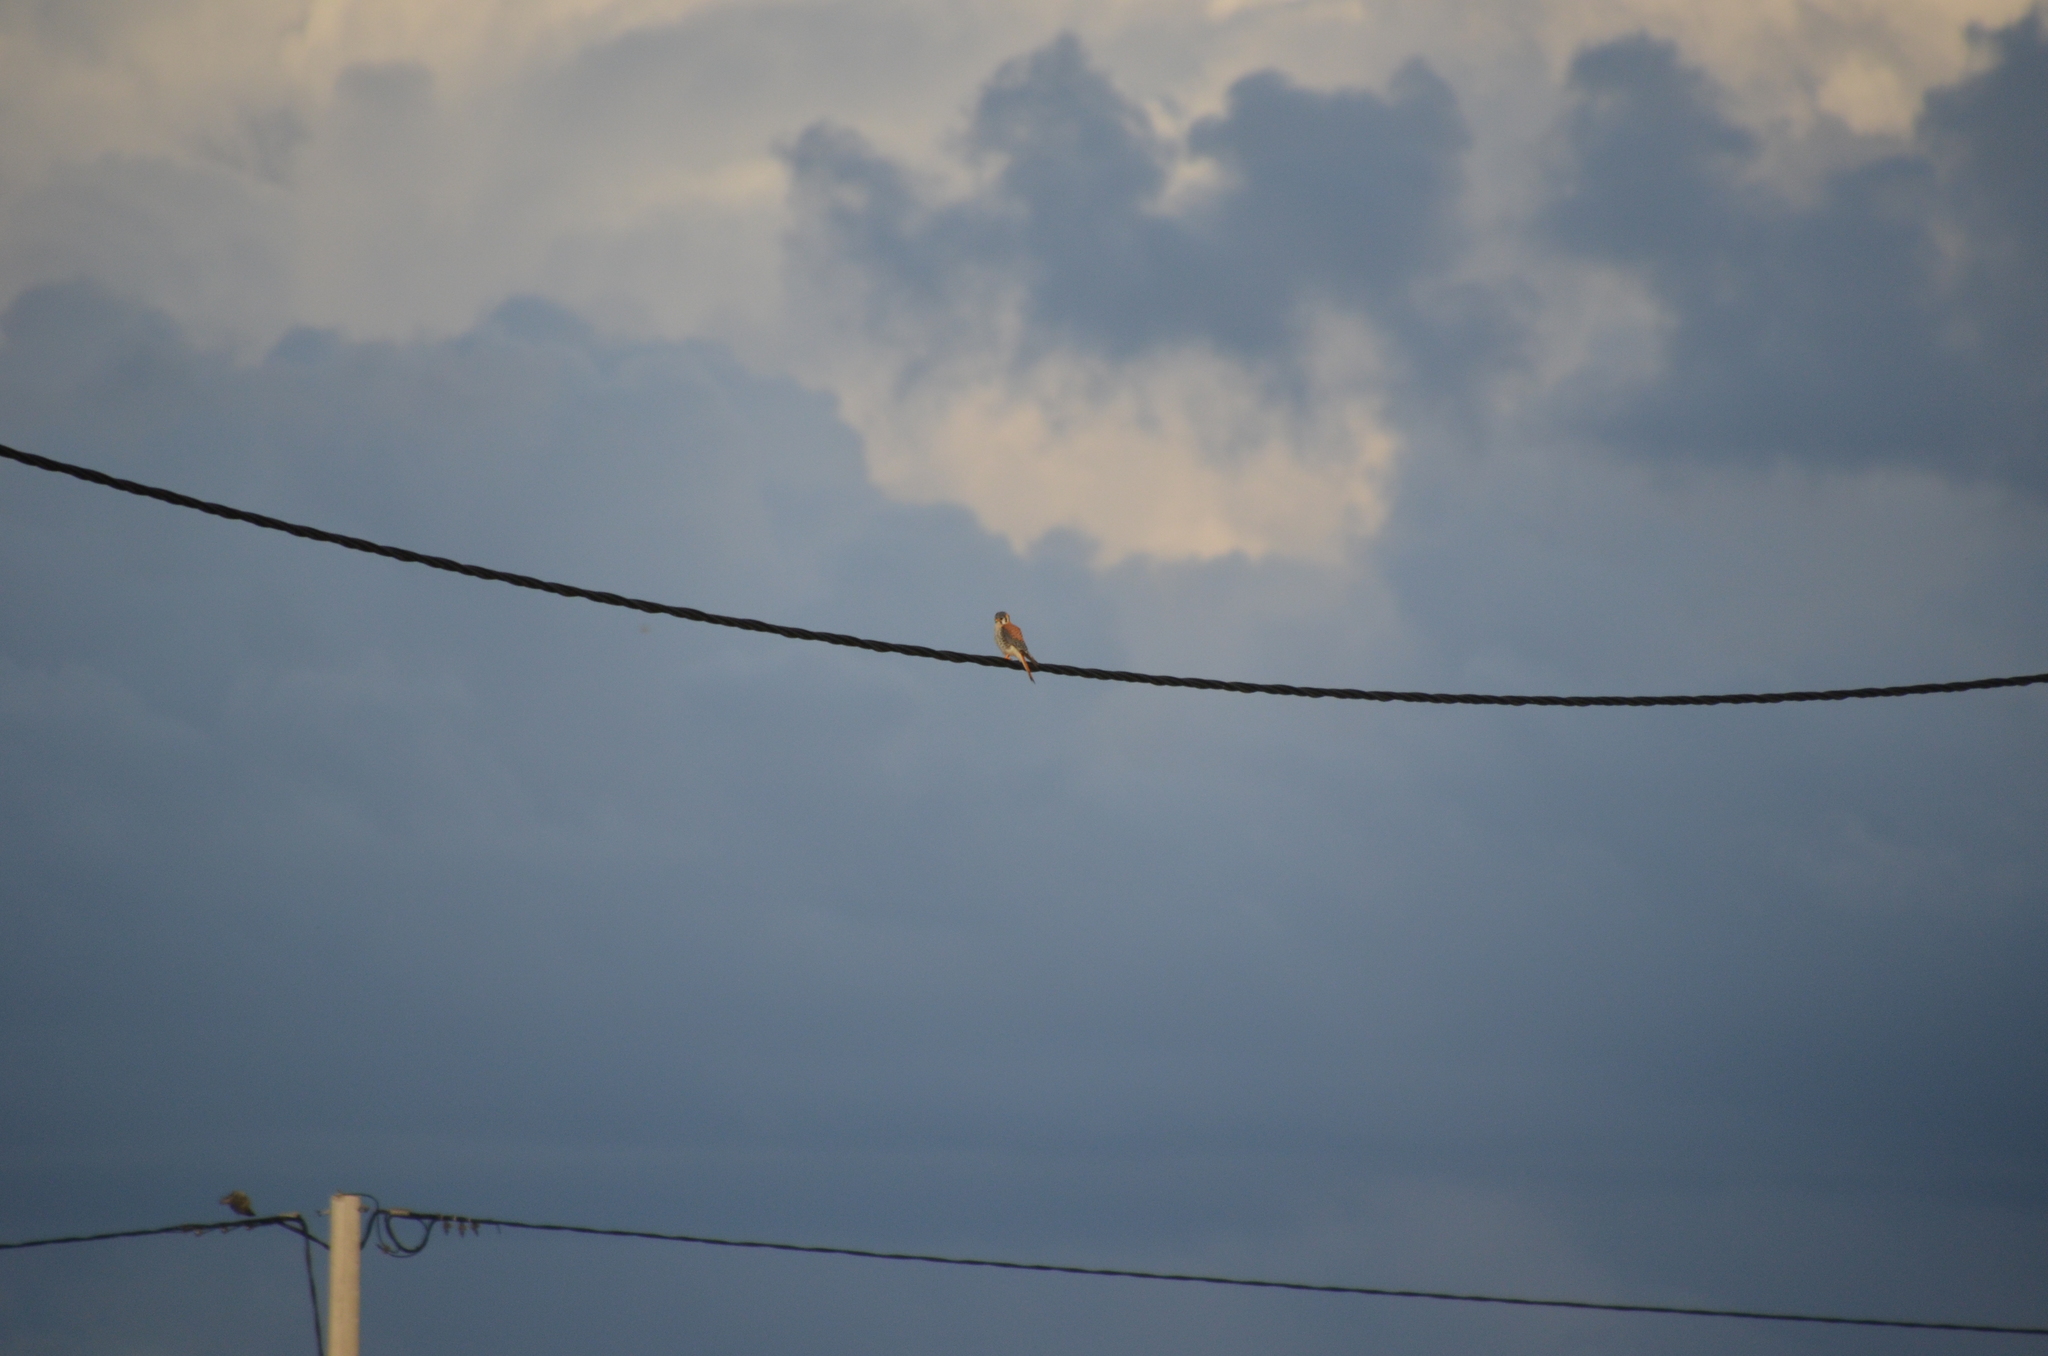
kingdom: Animalia
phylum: Chordata
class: Aves
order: Falconiformes
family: Falconidae
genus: Falco
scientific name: Falco sparverius
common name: American kestrel
